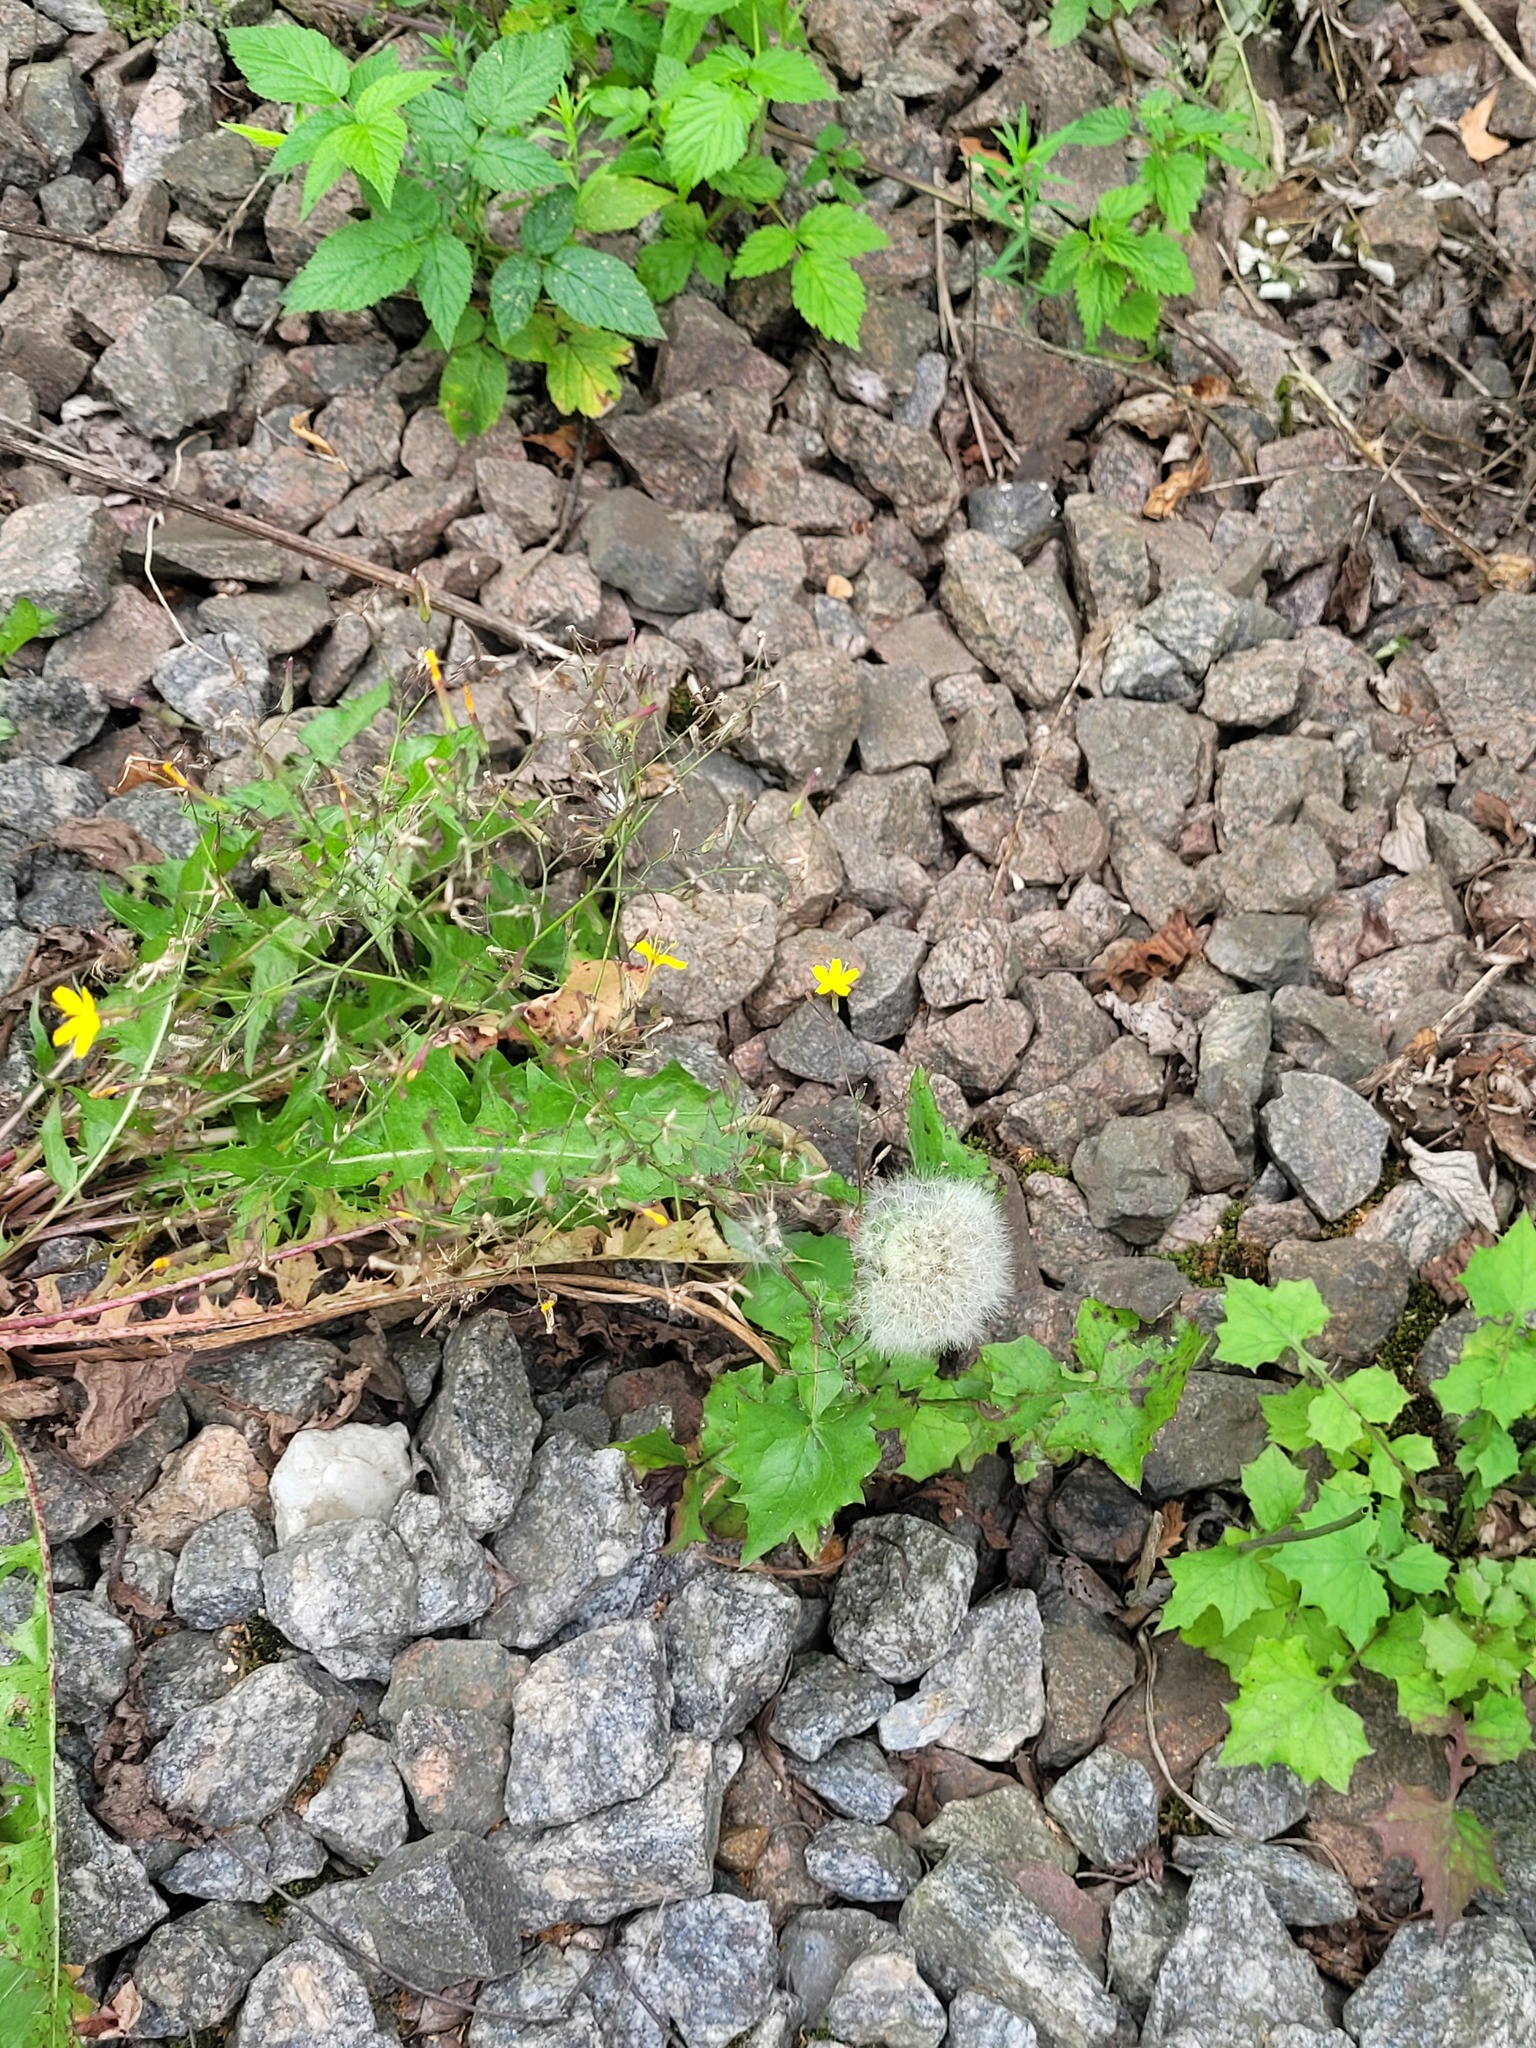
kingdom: Plantae
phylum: Tracheophyta
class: Magnoliopsida
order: Asterales
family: Asteraceae
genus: Mycelis
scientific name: Mycelis muralis
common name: Wall lettuce
